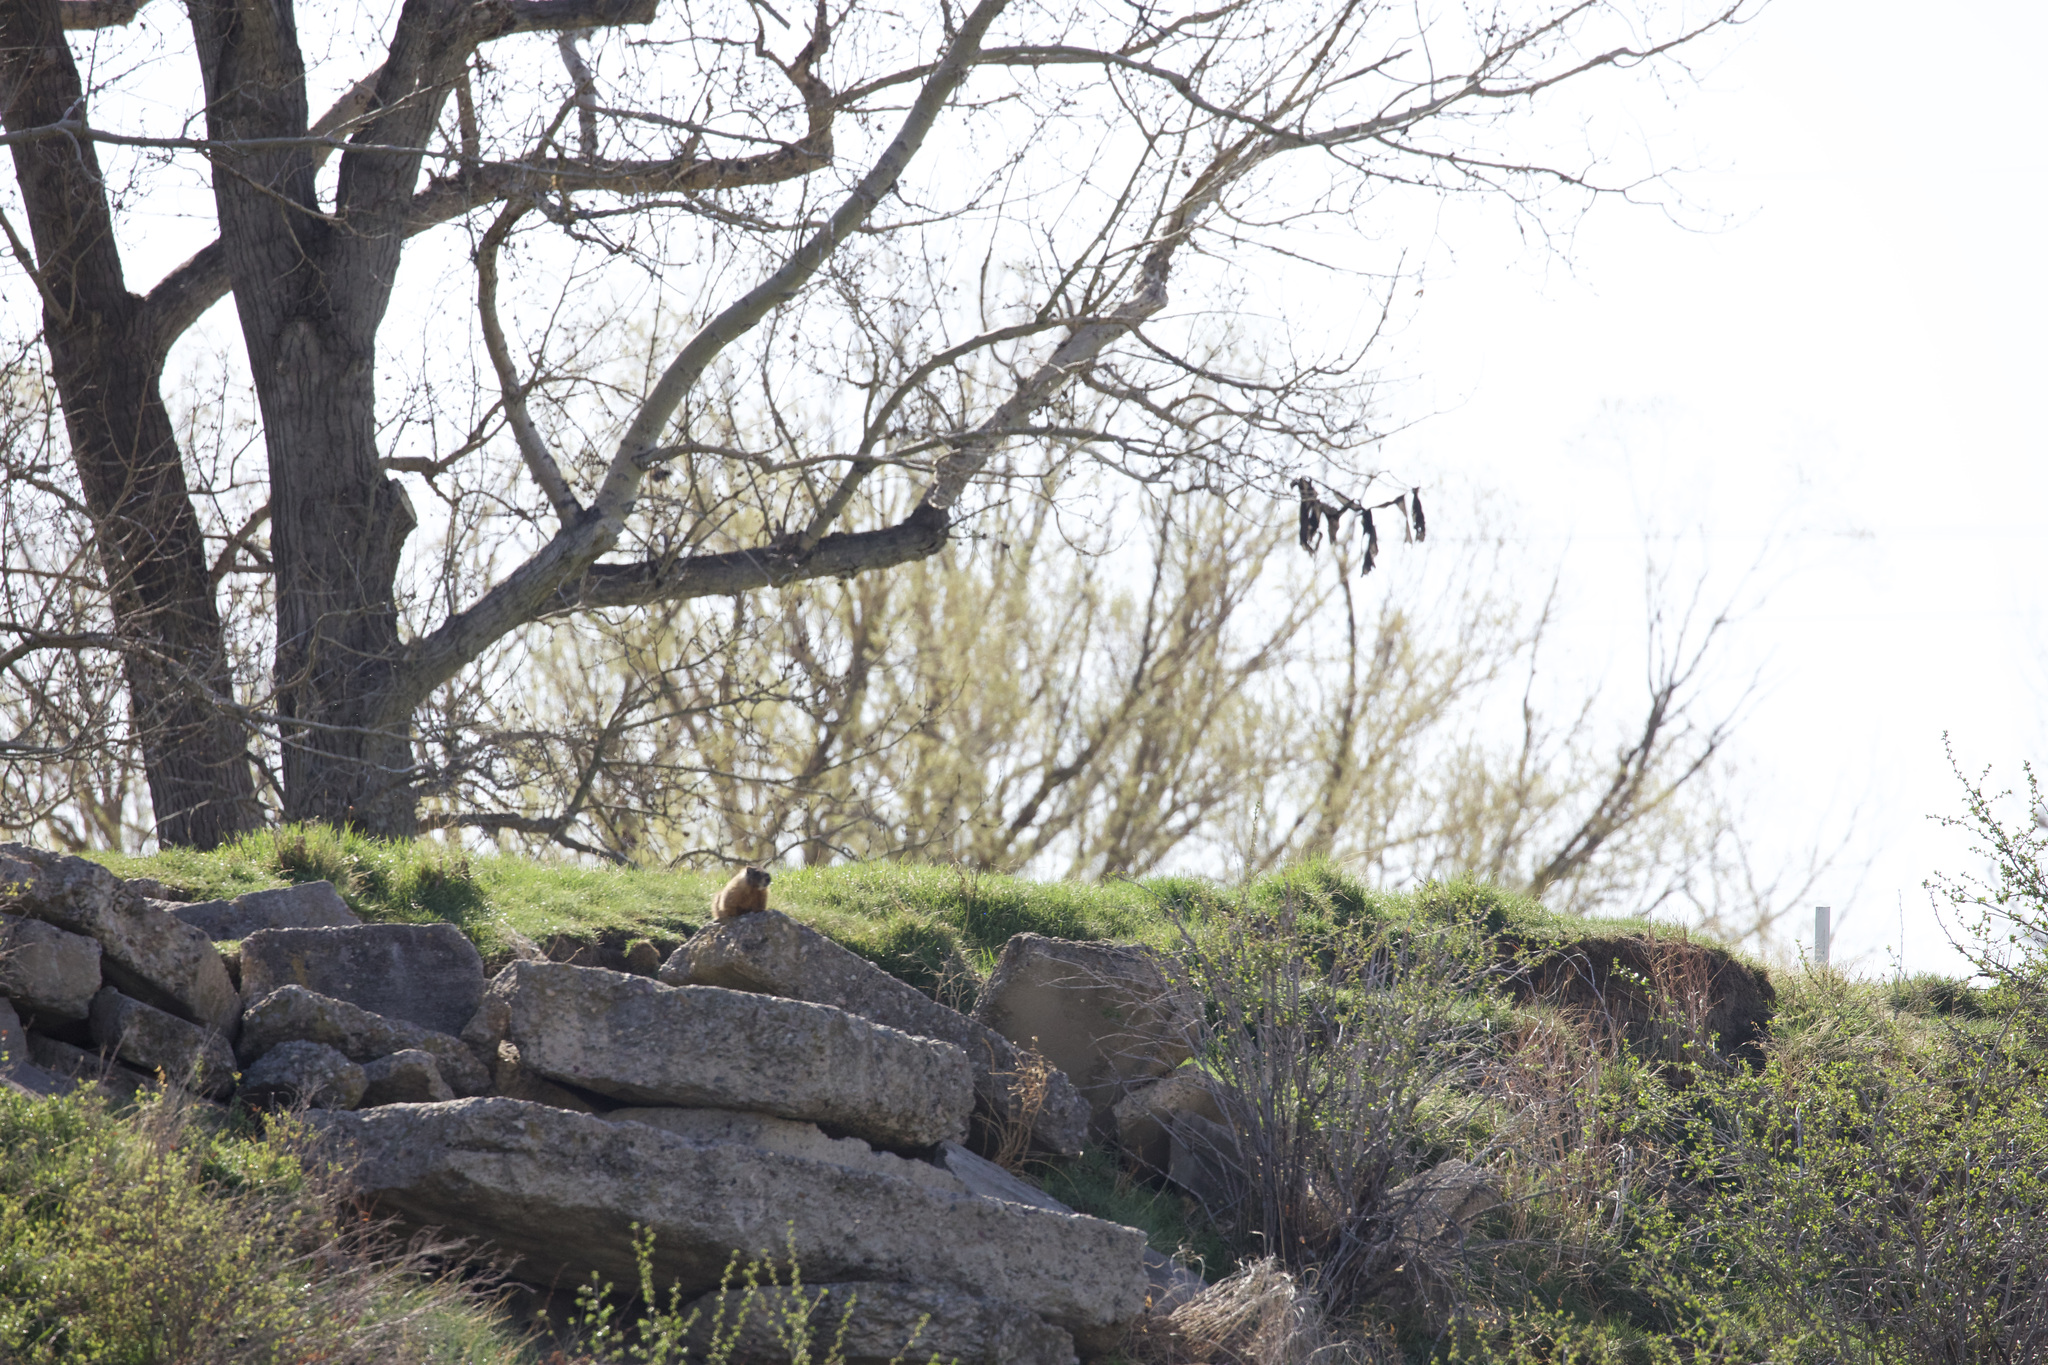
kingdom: Animalia
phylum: Chordata
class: Mammalia
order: Rodentia
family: Sciuridae
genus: Marmota
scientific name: Marmota flaviventris
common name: Yellow-bellied marmot
